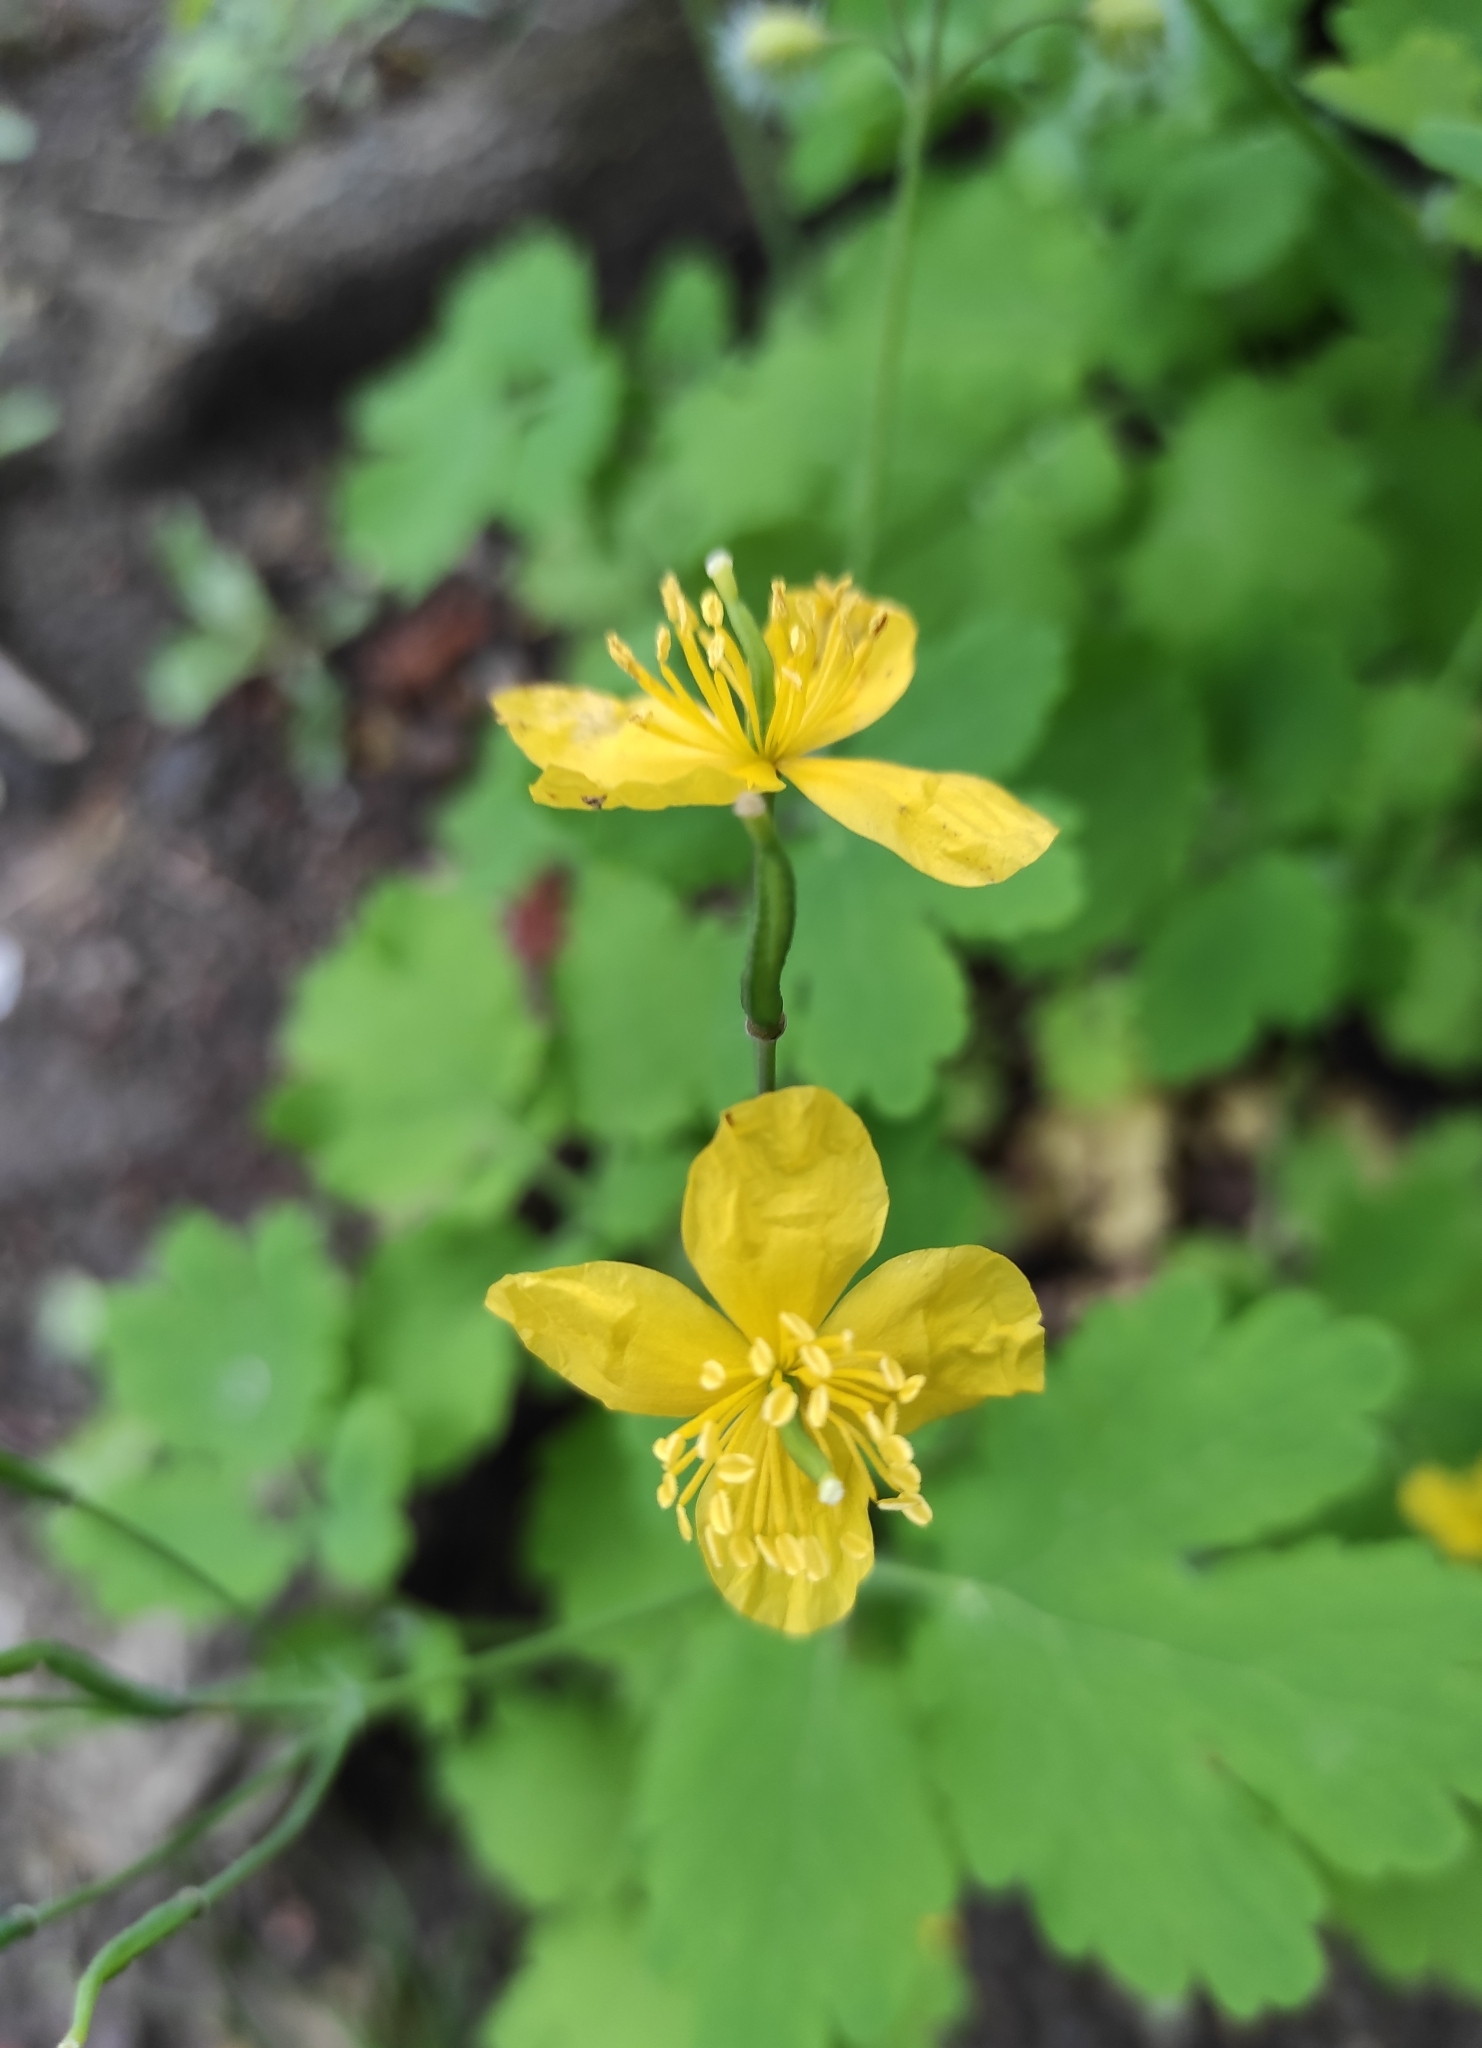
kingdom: Plantae
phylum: Tracheophyta
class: Magnoliopsida
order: Ranunculales
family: Papaveraceae
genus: Chelidonium
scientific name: Chelidonium majus
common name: Greater celandine
